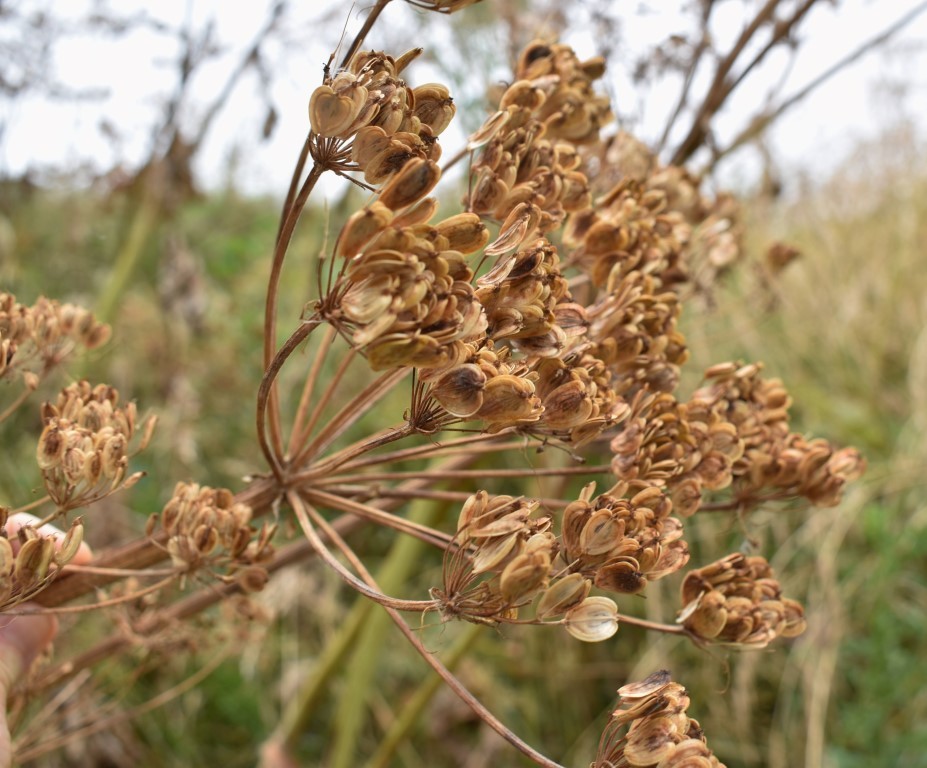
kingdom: Plantae
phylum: Tracheophyta
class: Magnoliopsida
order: Apiales
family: Apiaceae
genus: Heracleum
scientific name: Heracleum maximum
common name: American cow parsnip
